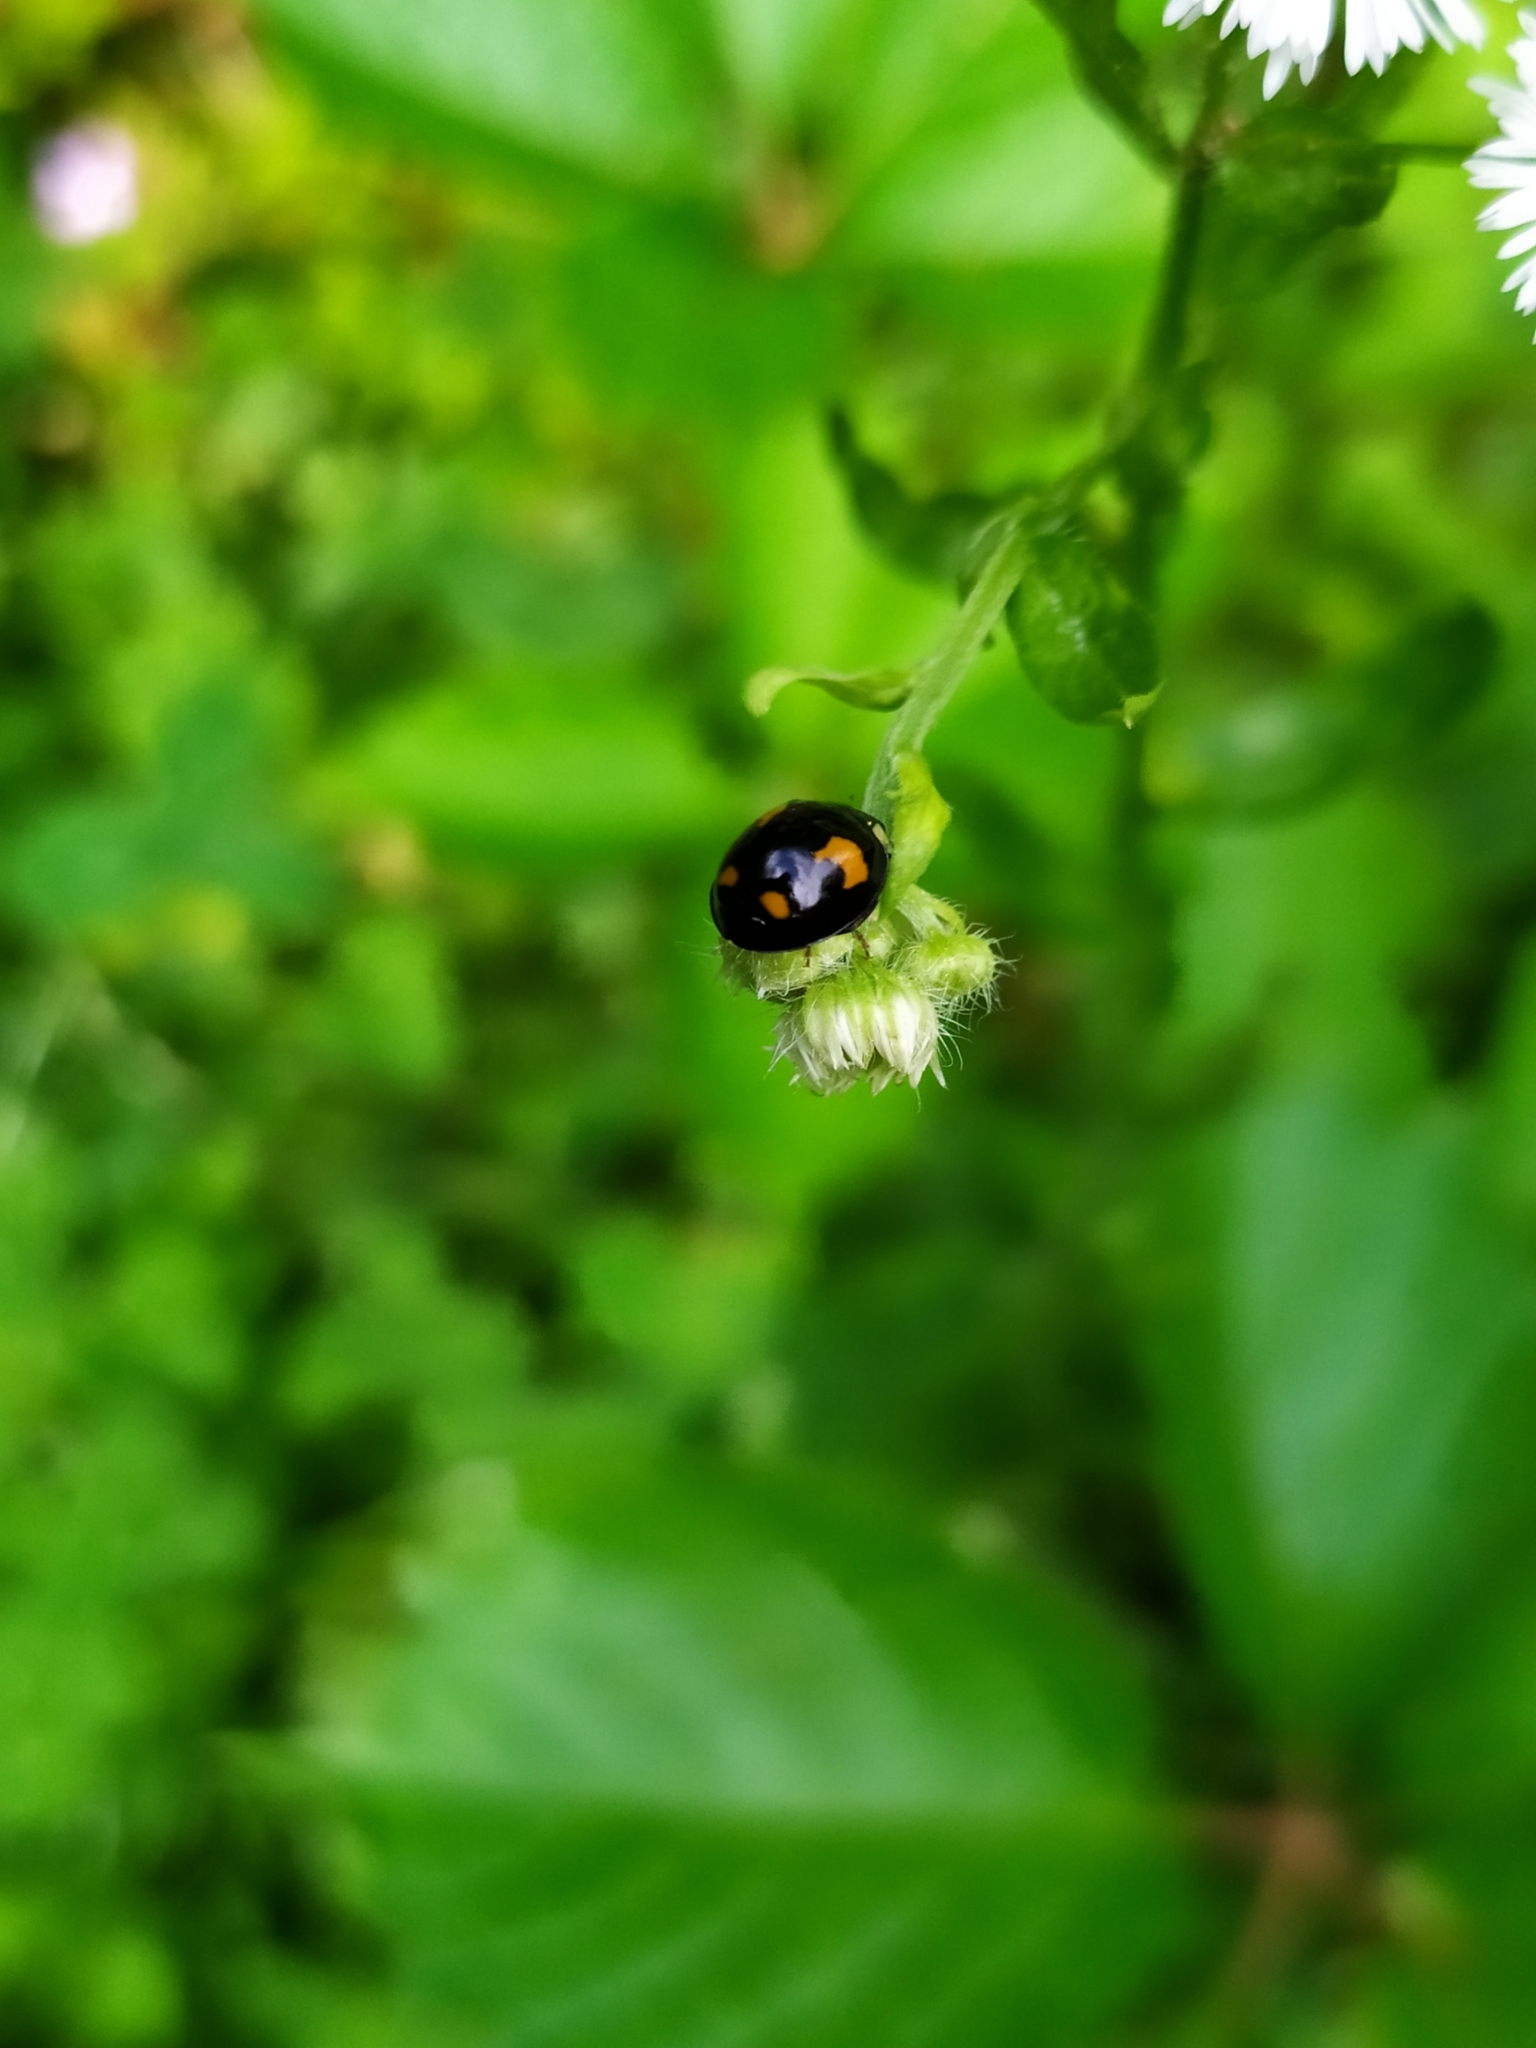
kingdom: Animalia
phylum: Arthropoda
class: Insecta
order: Coleoptera
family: Coccinellidae
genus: Harmonia
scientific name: Harmonia axyridis
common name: Harlequin ladybird
